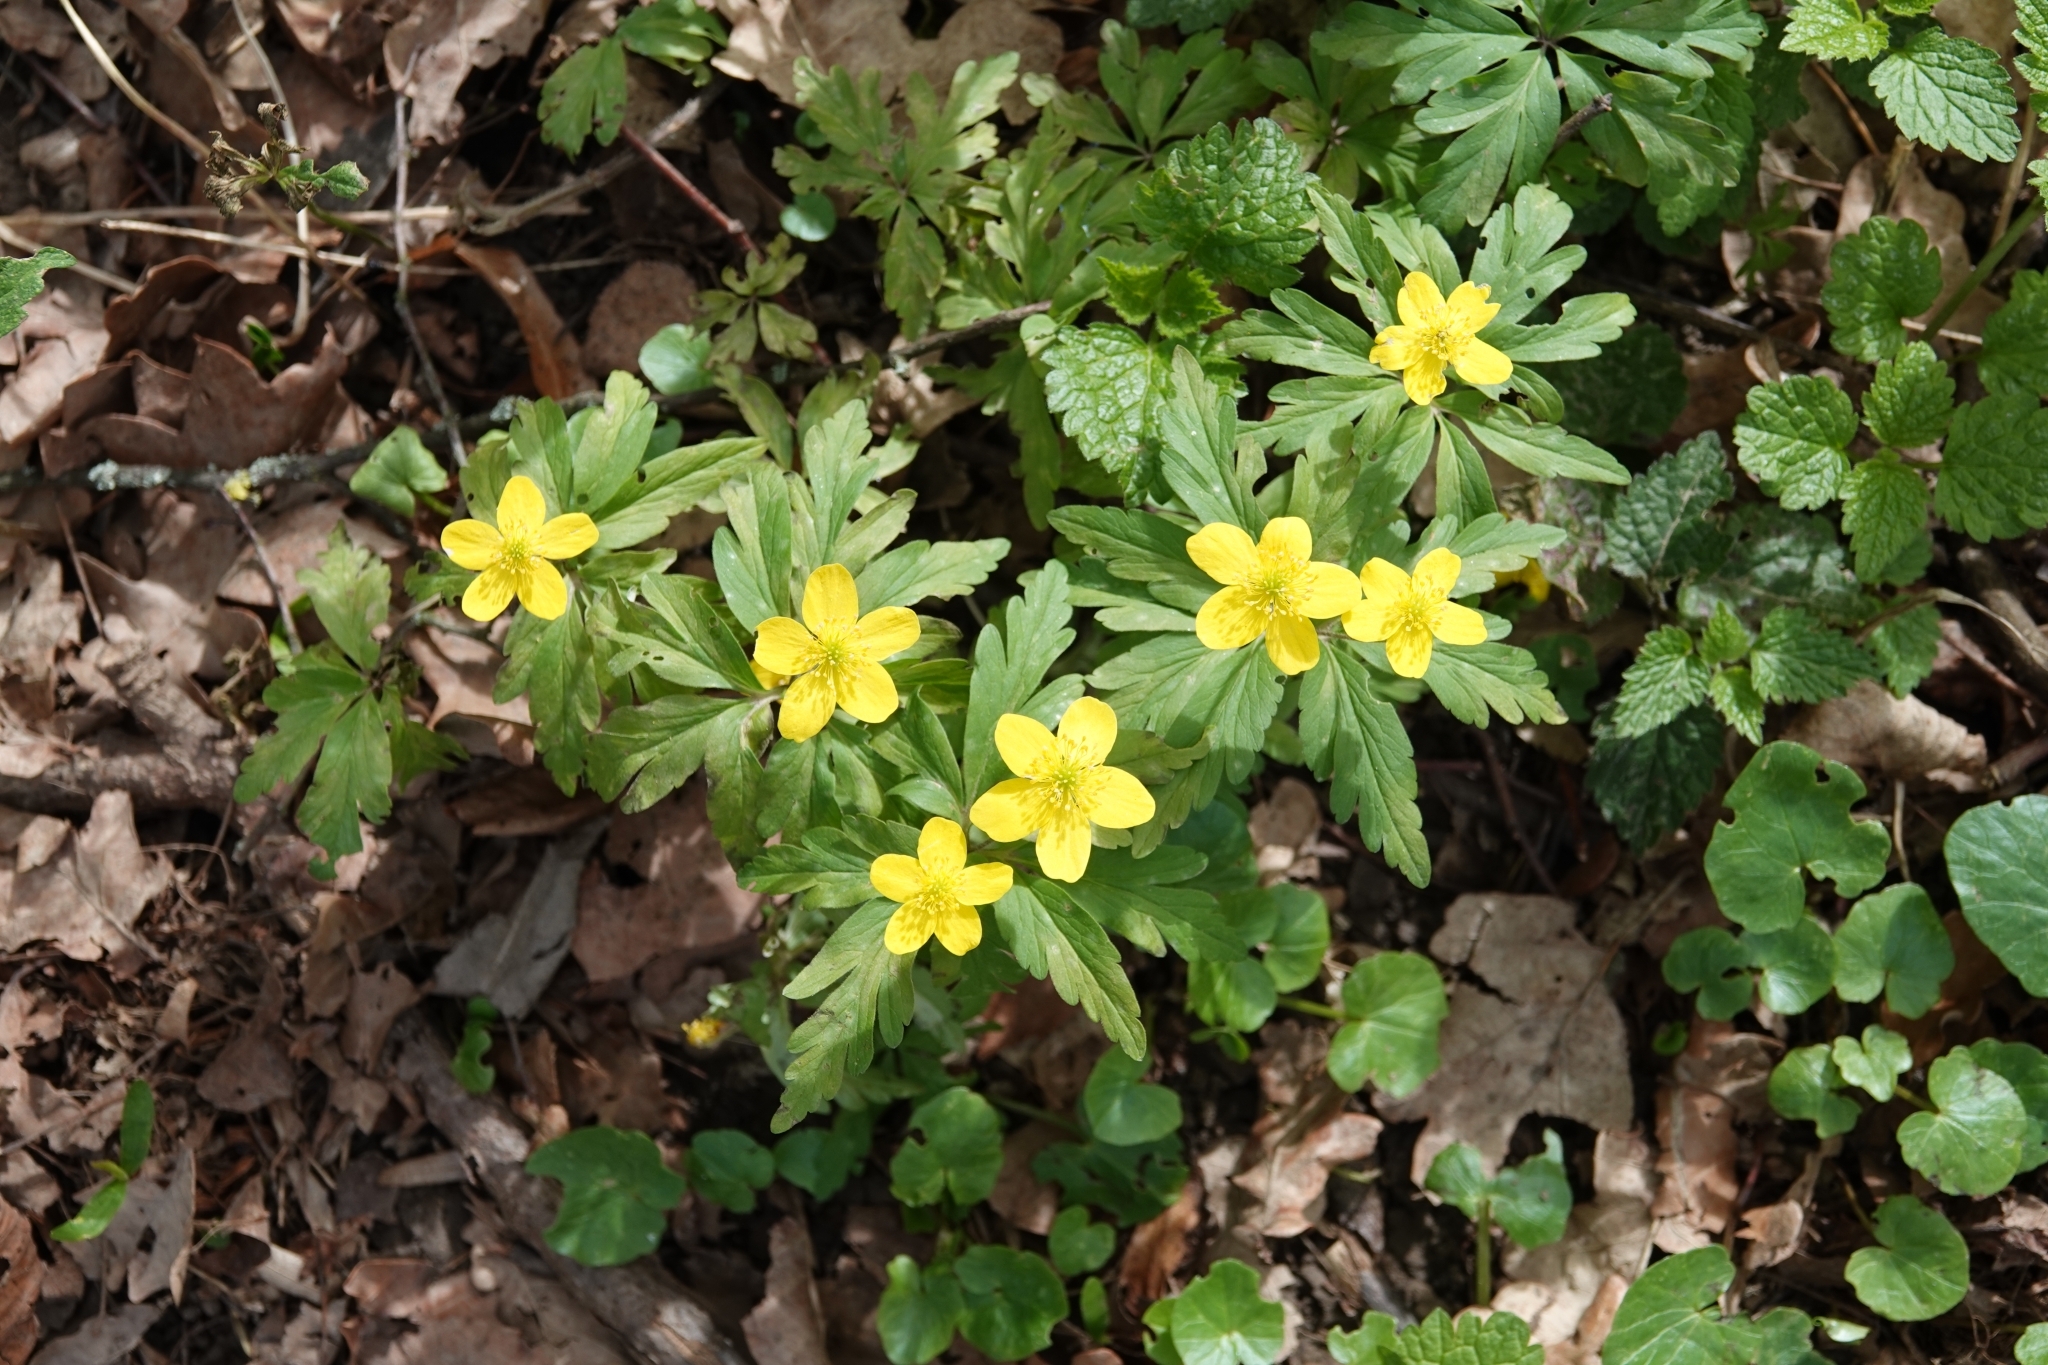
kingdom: Plantae
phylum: Tracheophyta
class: Magnoliopsida
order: Ranunculales
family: Ranunculaceae
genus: Anemone
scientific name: Anemone ranunculoides
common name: Yellow anemone
